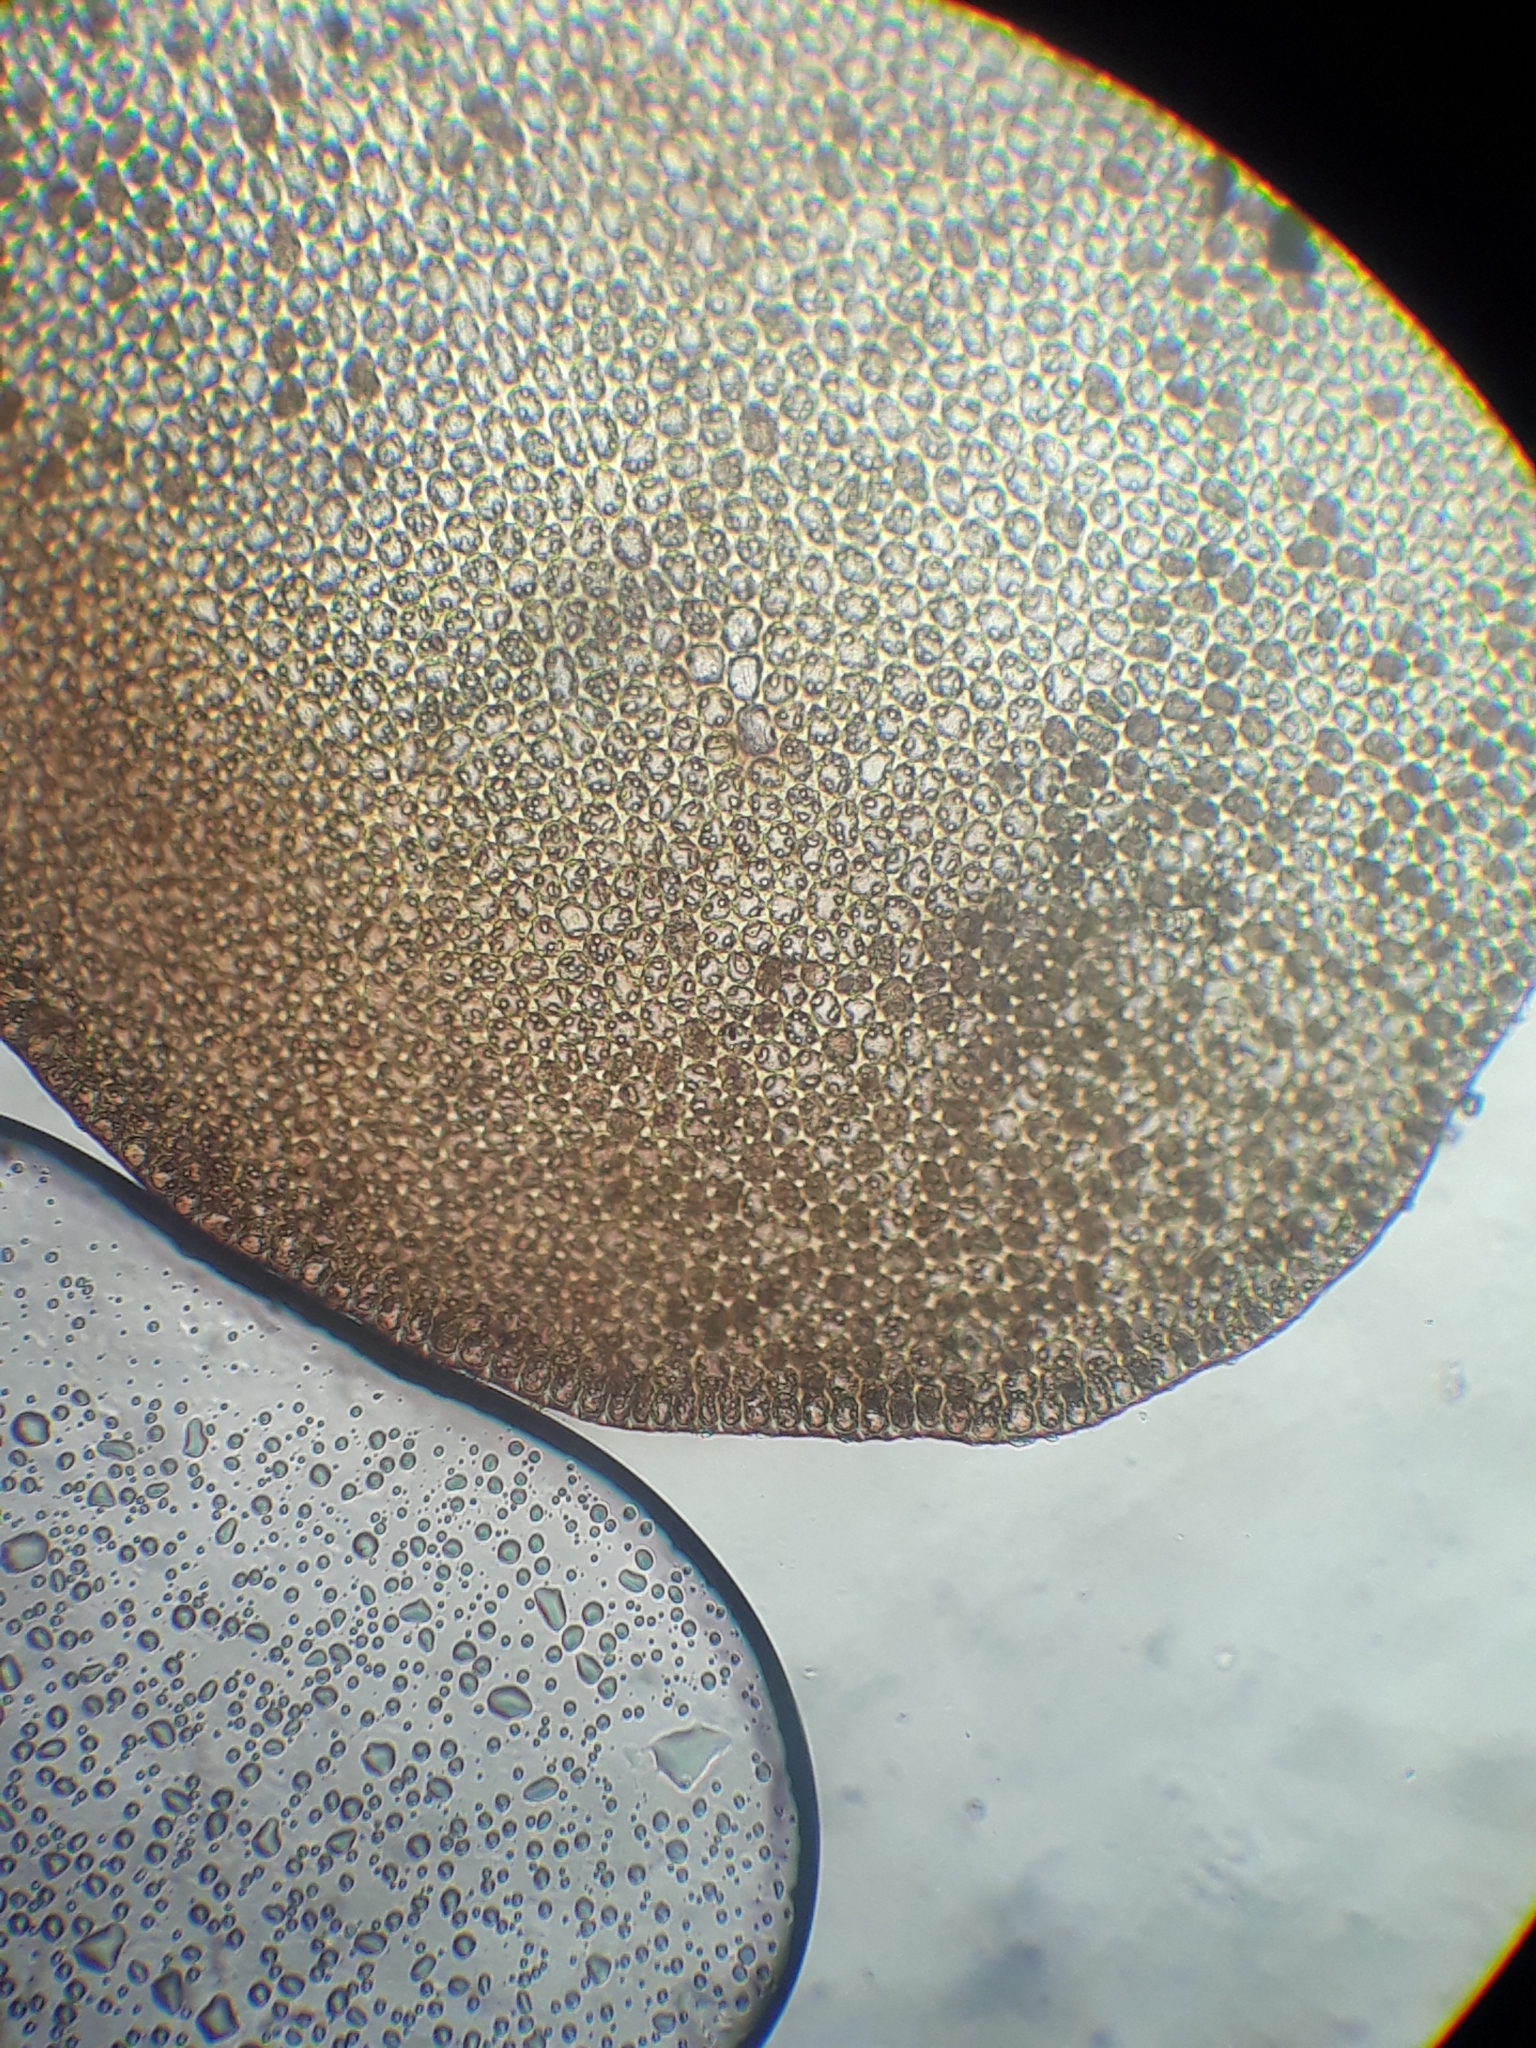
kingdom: Plantae
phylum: Marchantiophyta
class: Jungermanniopsida
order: Jungermanniales
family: Adelanthaceae
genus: Syzygiella
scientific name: Syzygiella nigrescens
